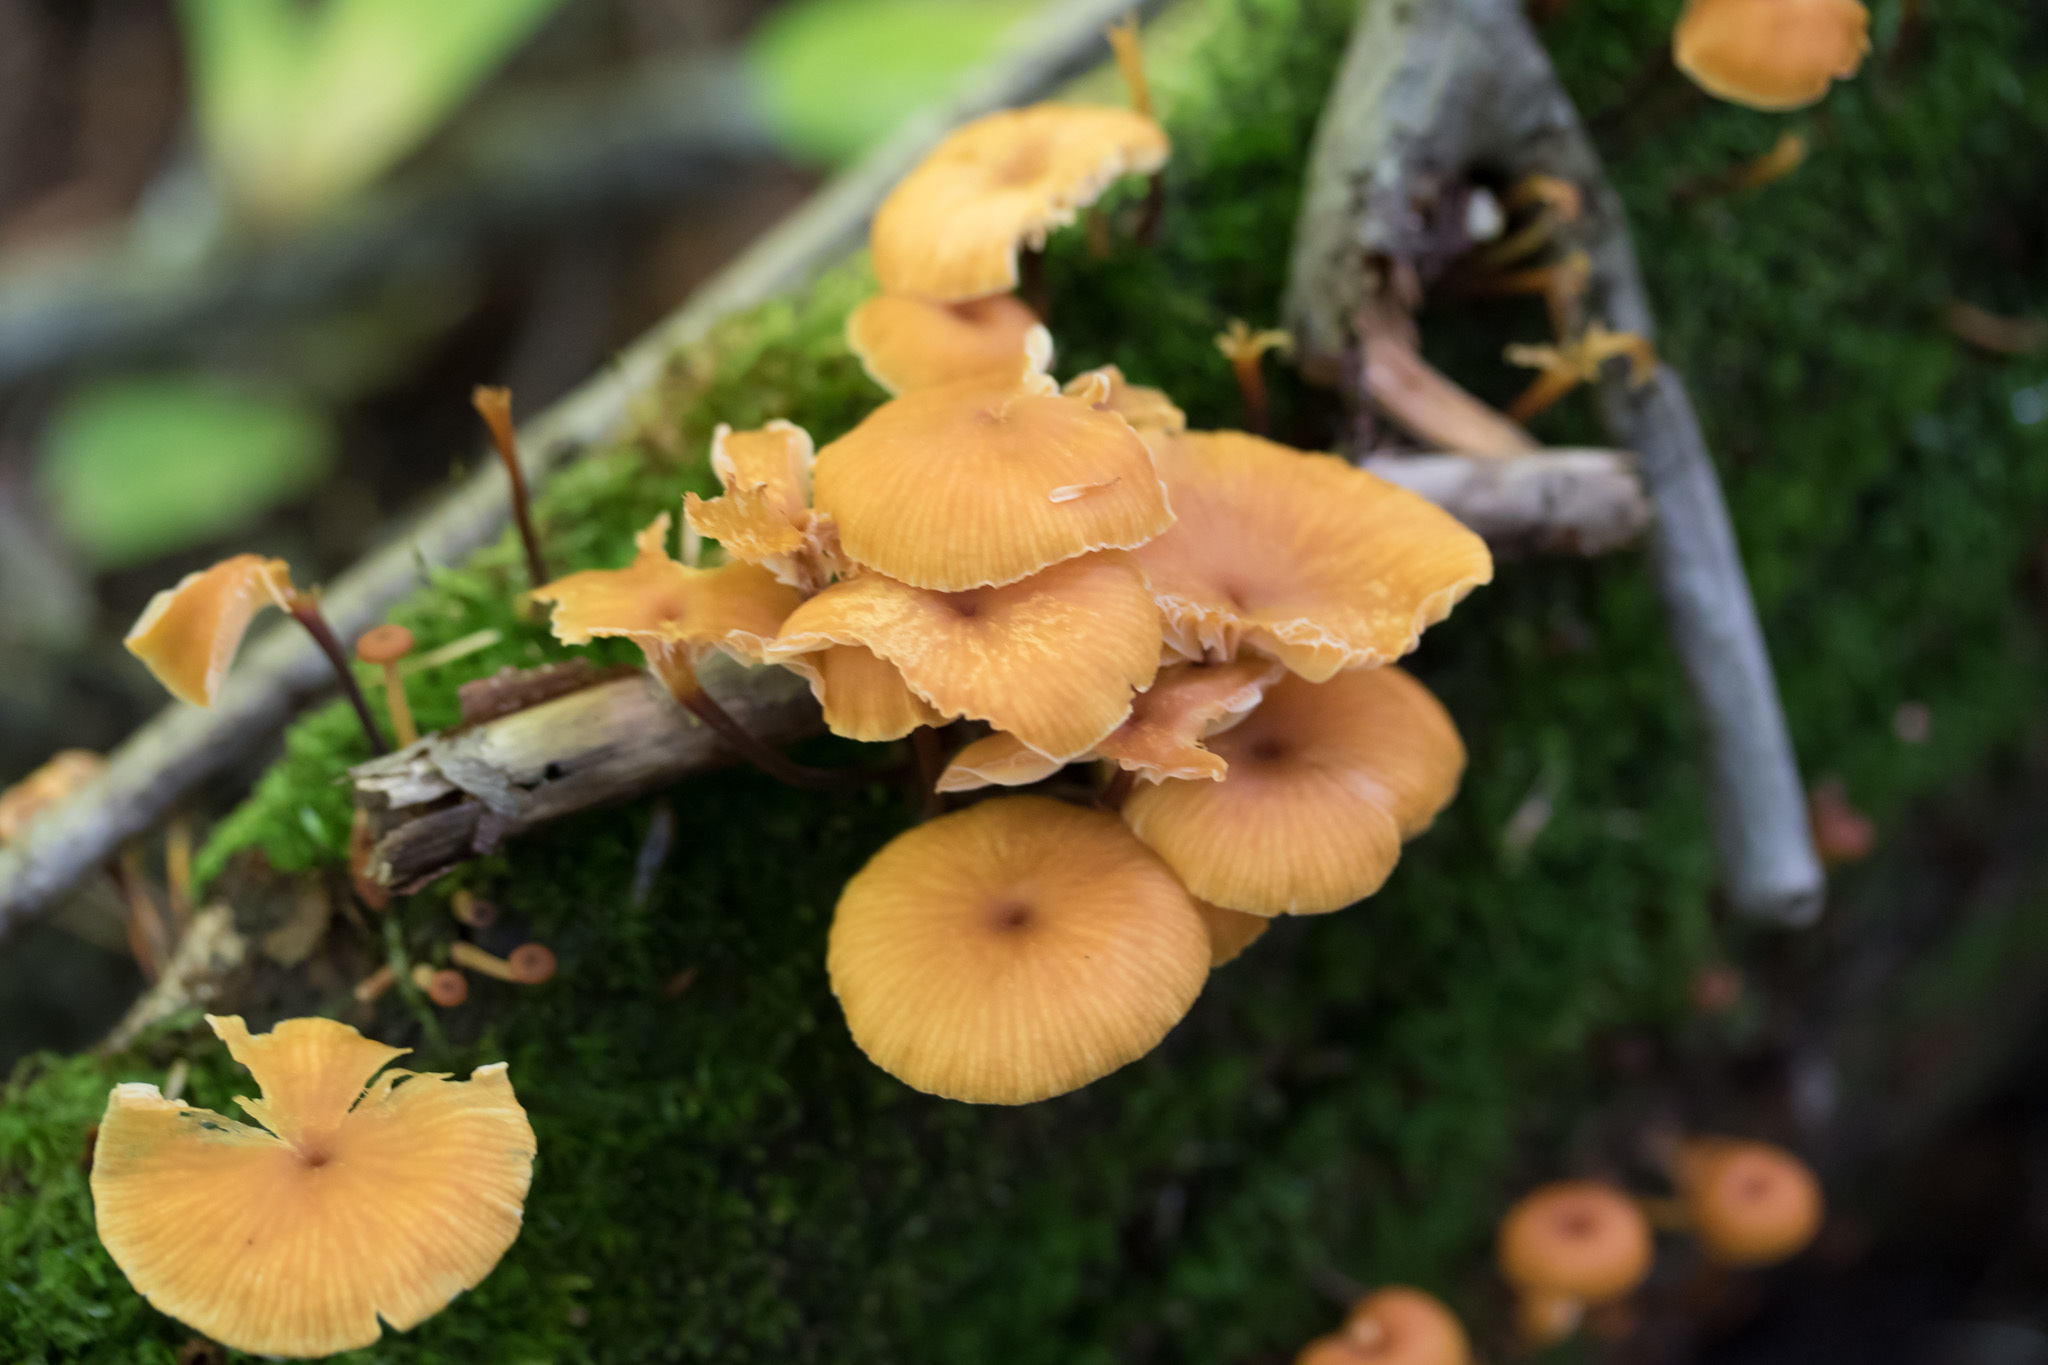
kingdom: Fungi
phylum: Basidiomycota
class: Agaricomycetes
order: Agaricales
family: Mycenaceae
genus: Xeromphalina
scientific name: Xeromphalina campanella
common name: Pinewood gingertail
